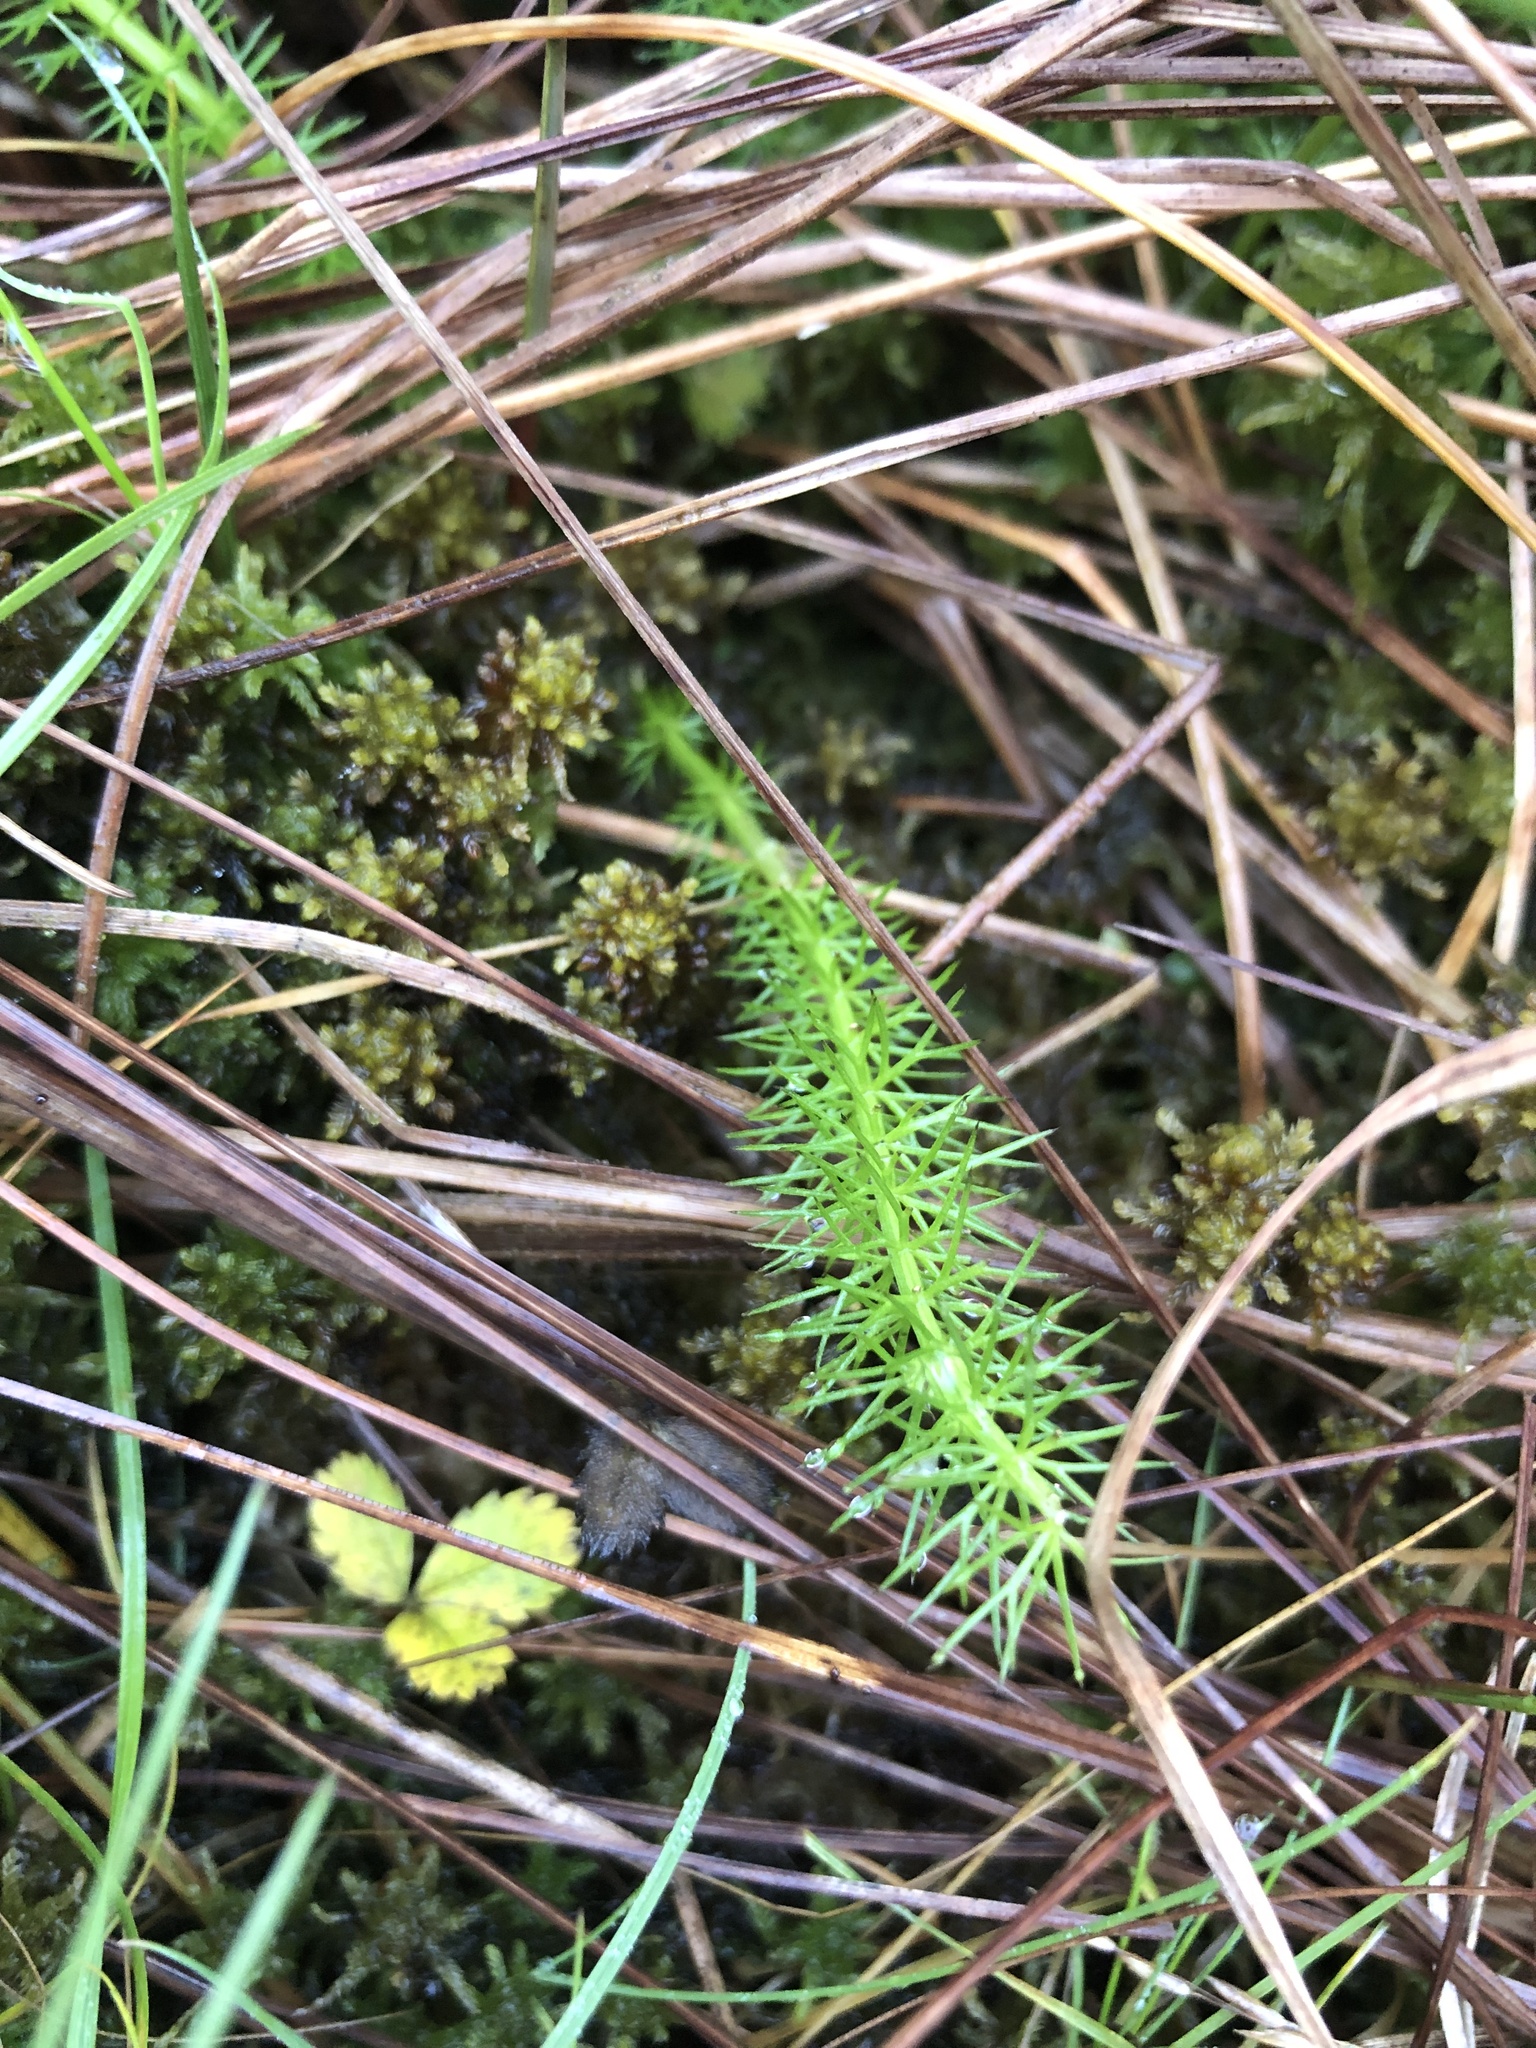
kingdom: Plantae
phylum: Tracheophyta
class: Magnoliopsida
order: Apiales
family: Apiaceae
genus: Trocdaris
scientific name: Trocdaris verticillatum
